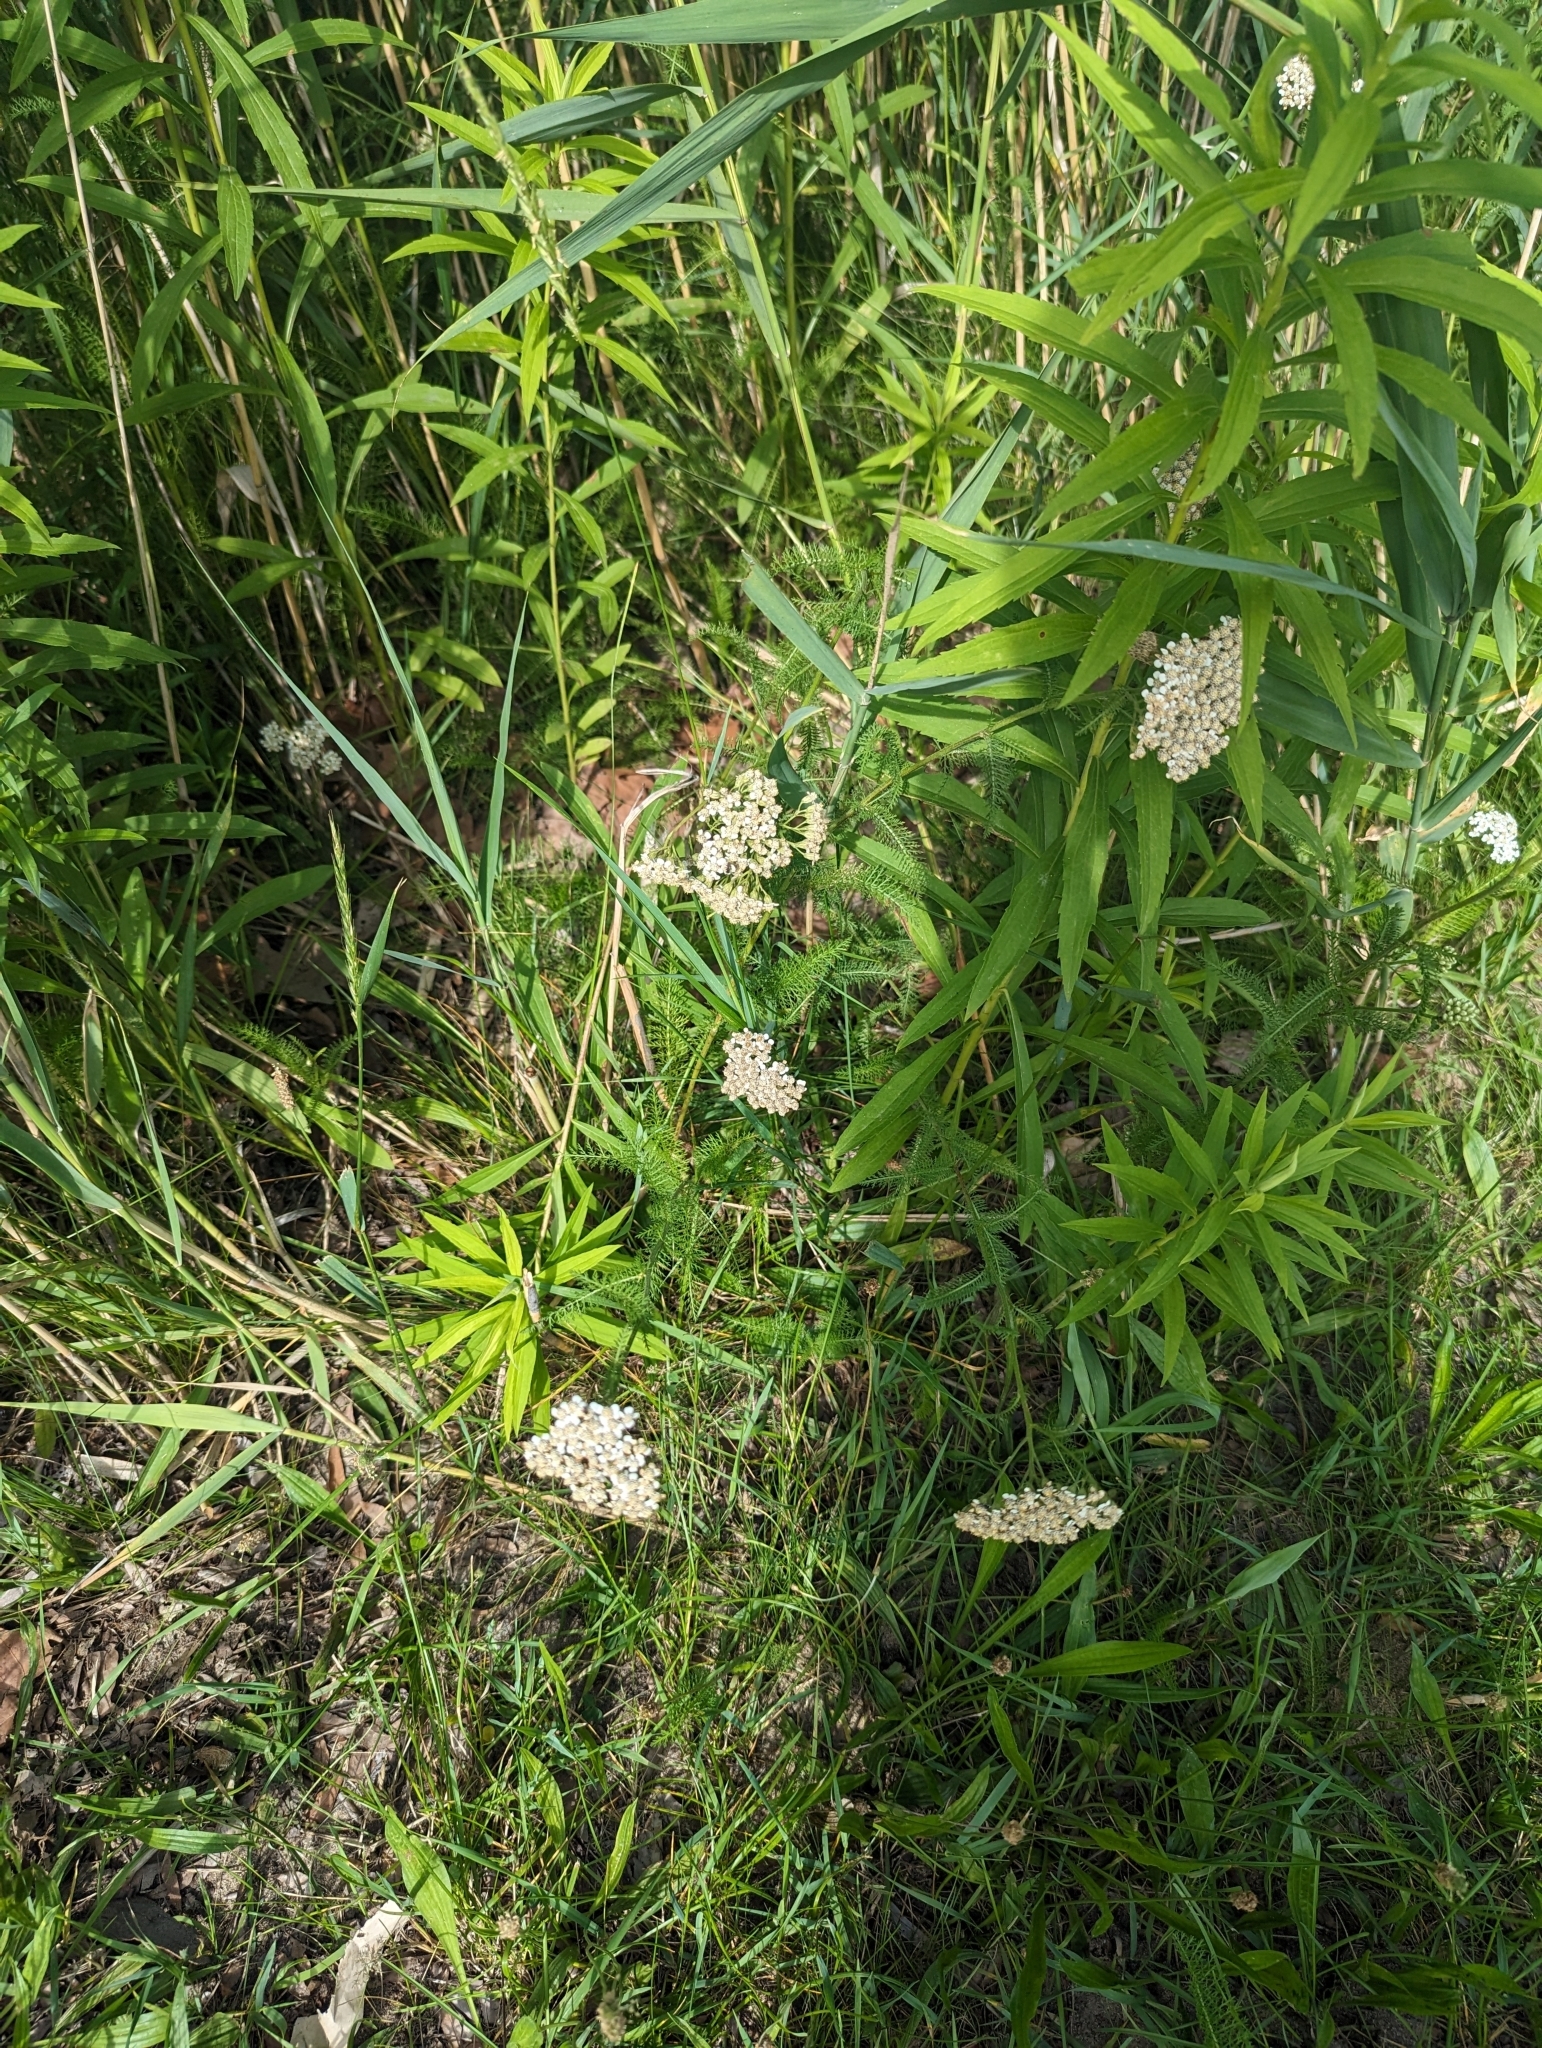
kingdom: Plantae
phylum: Tracheophyta
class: Magnoliopsida
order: Asterales
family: Asteraceae
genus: Achillea
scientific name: Achillea millefolium
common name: Yarrow
